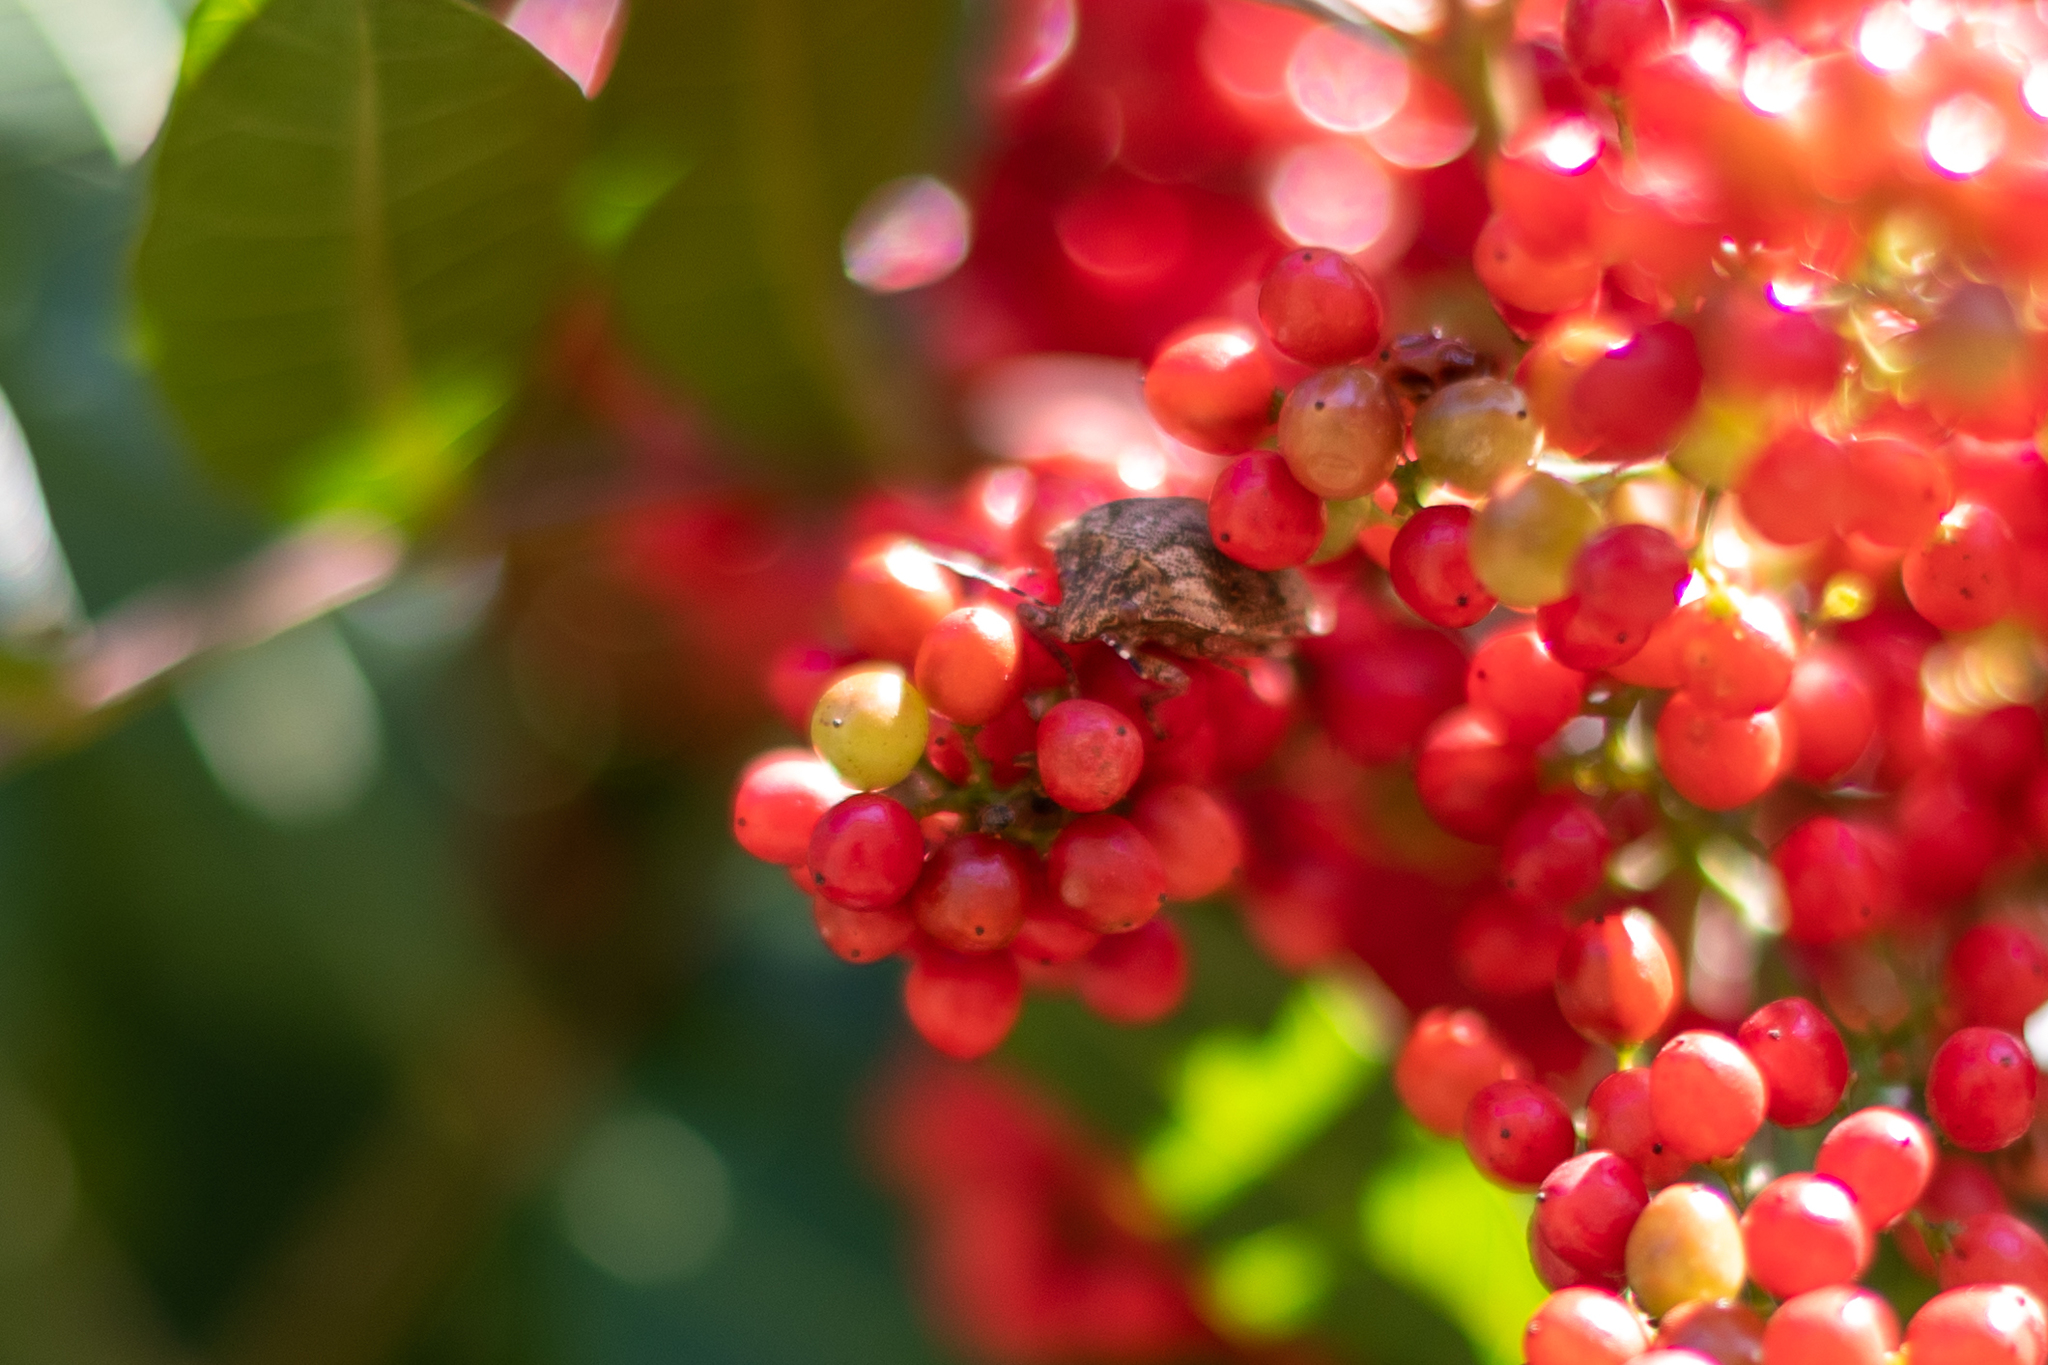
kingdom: Animalia
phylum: Arthropoda
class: Insecta
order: Hemiptera
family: Scutelleridae
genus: Tetyra
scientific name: Tetyra antillarum
